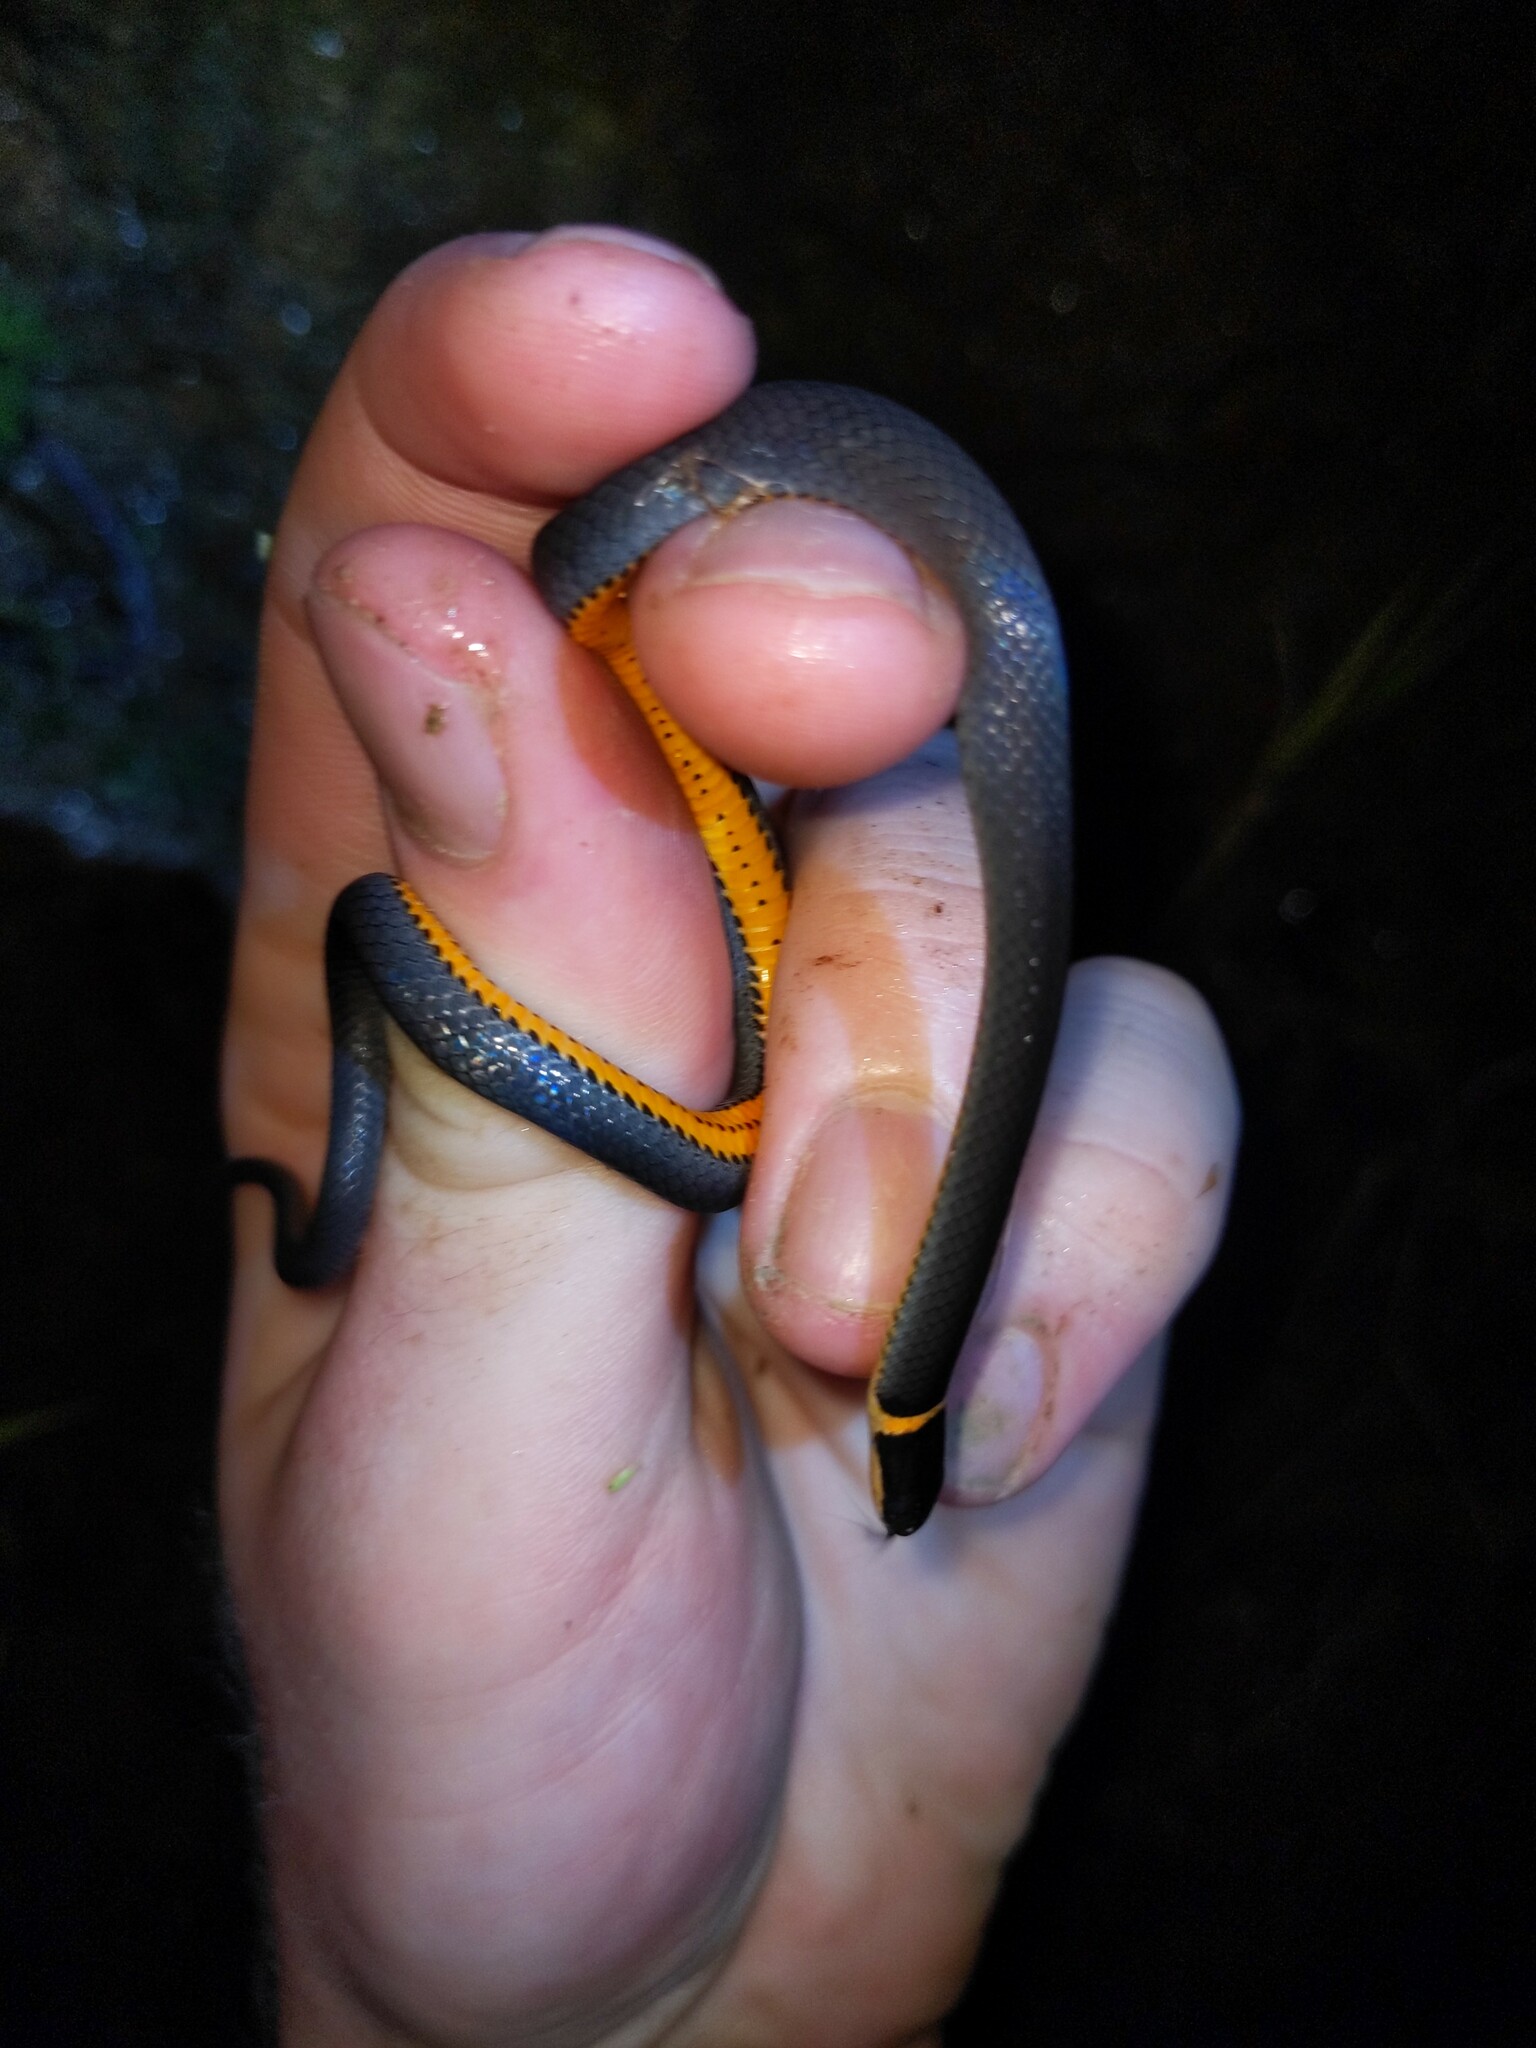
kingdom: Animalia
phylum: Chordata
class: Squamata
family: Colubridae
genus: Diadophis
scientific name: Diadophis punctatus
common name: Ringneck snake
